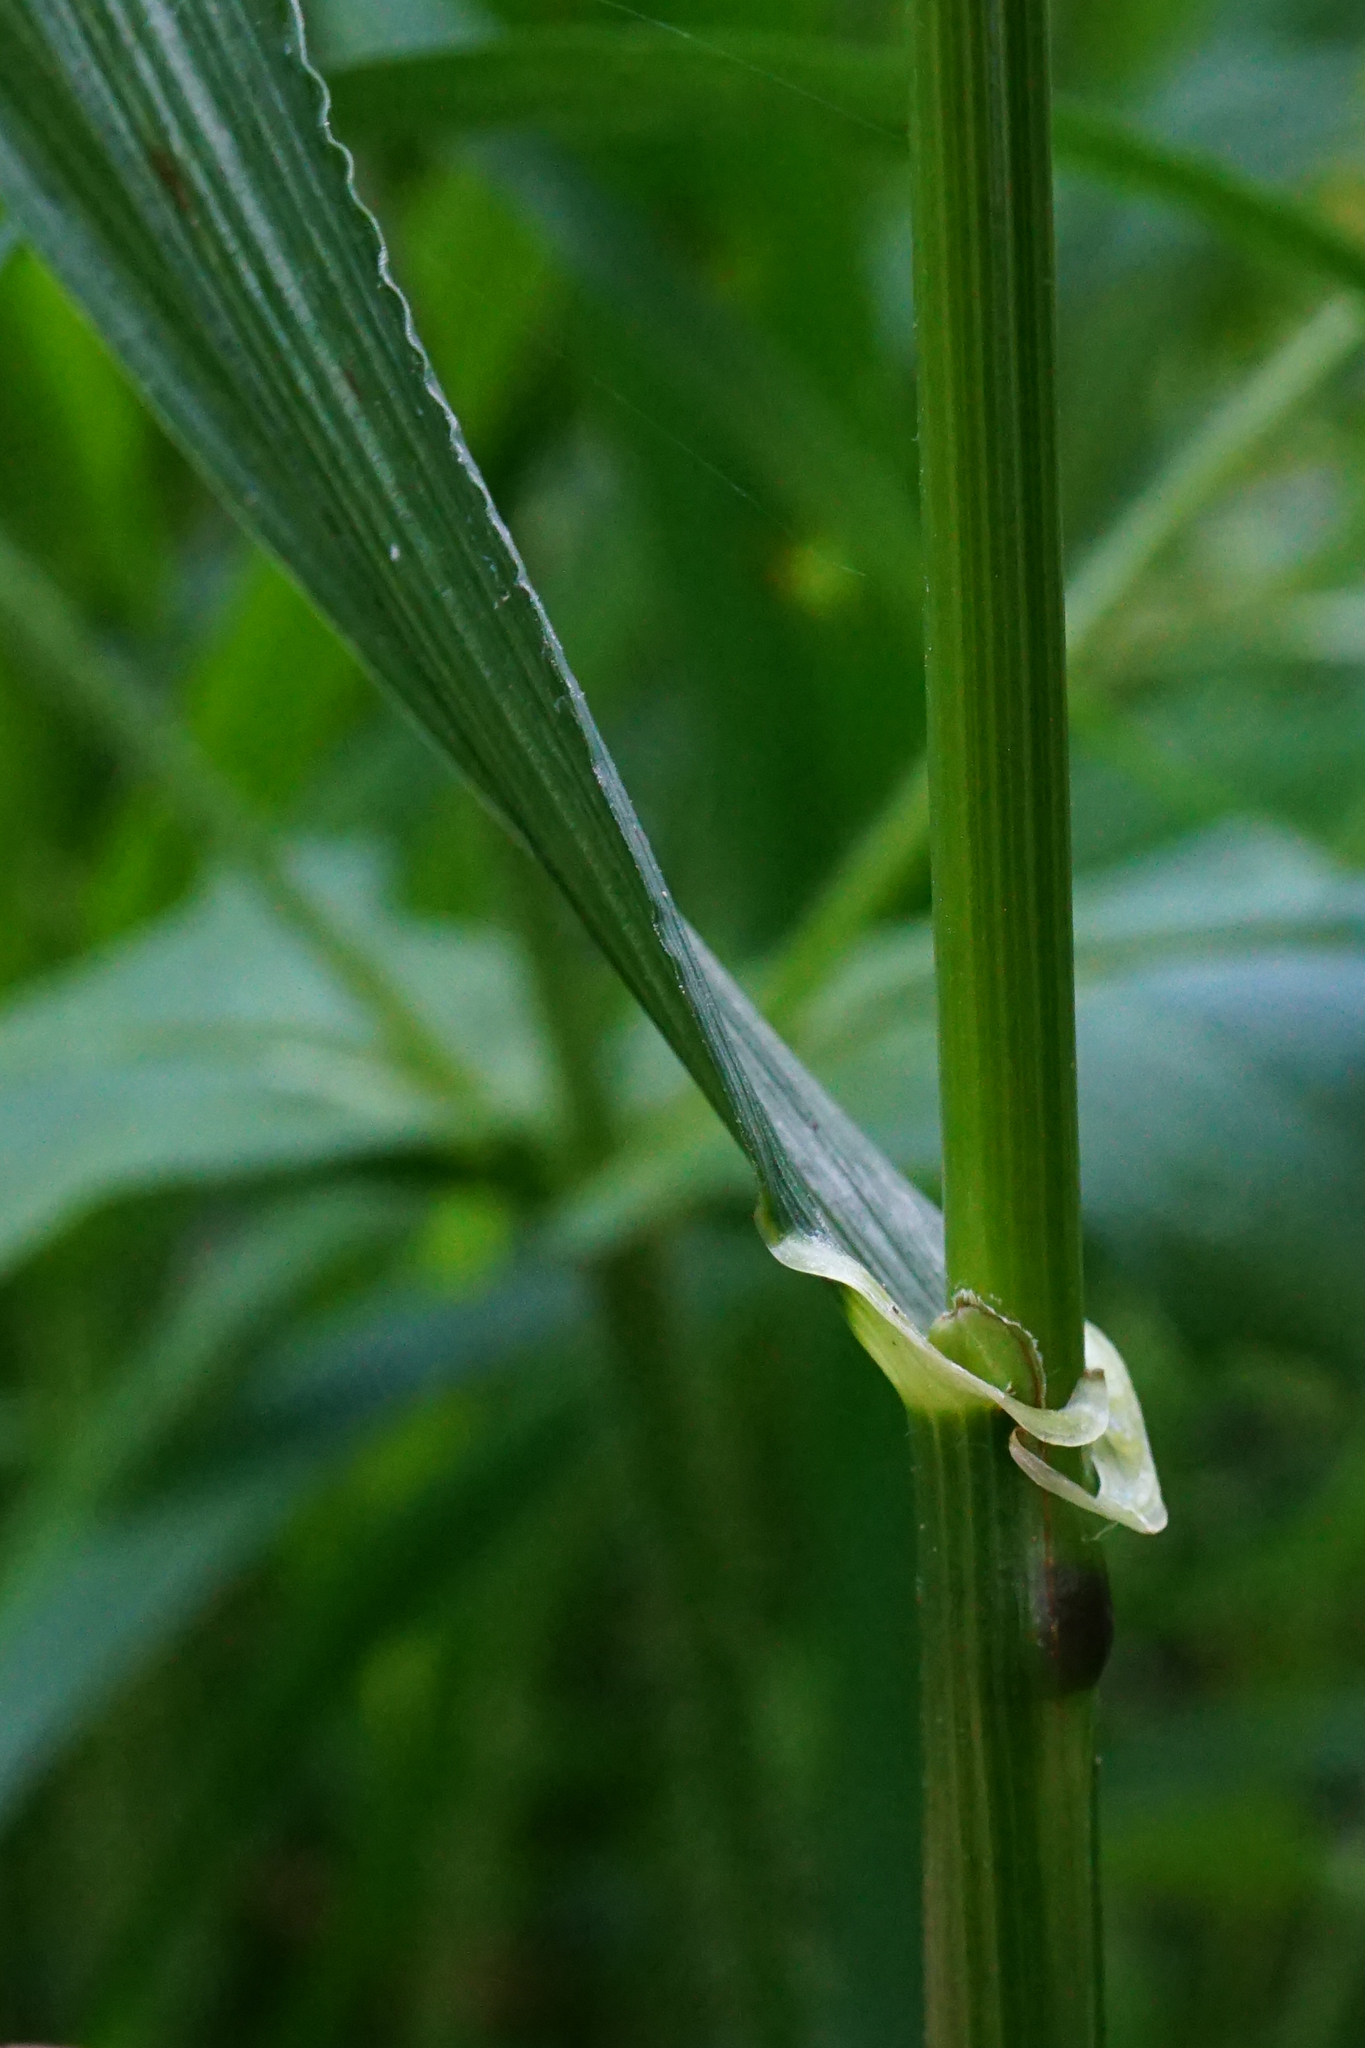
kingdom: Plantae
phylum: Tracheophyta
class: Liliopsida
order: Poales
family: Poaceae
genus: Lolium
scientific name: Lolium giganteum
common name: Giant fescue
